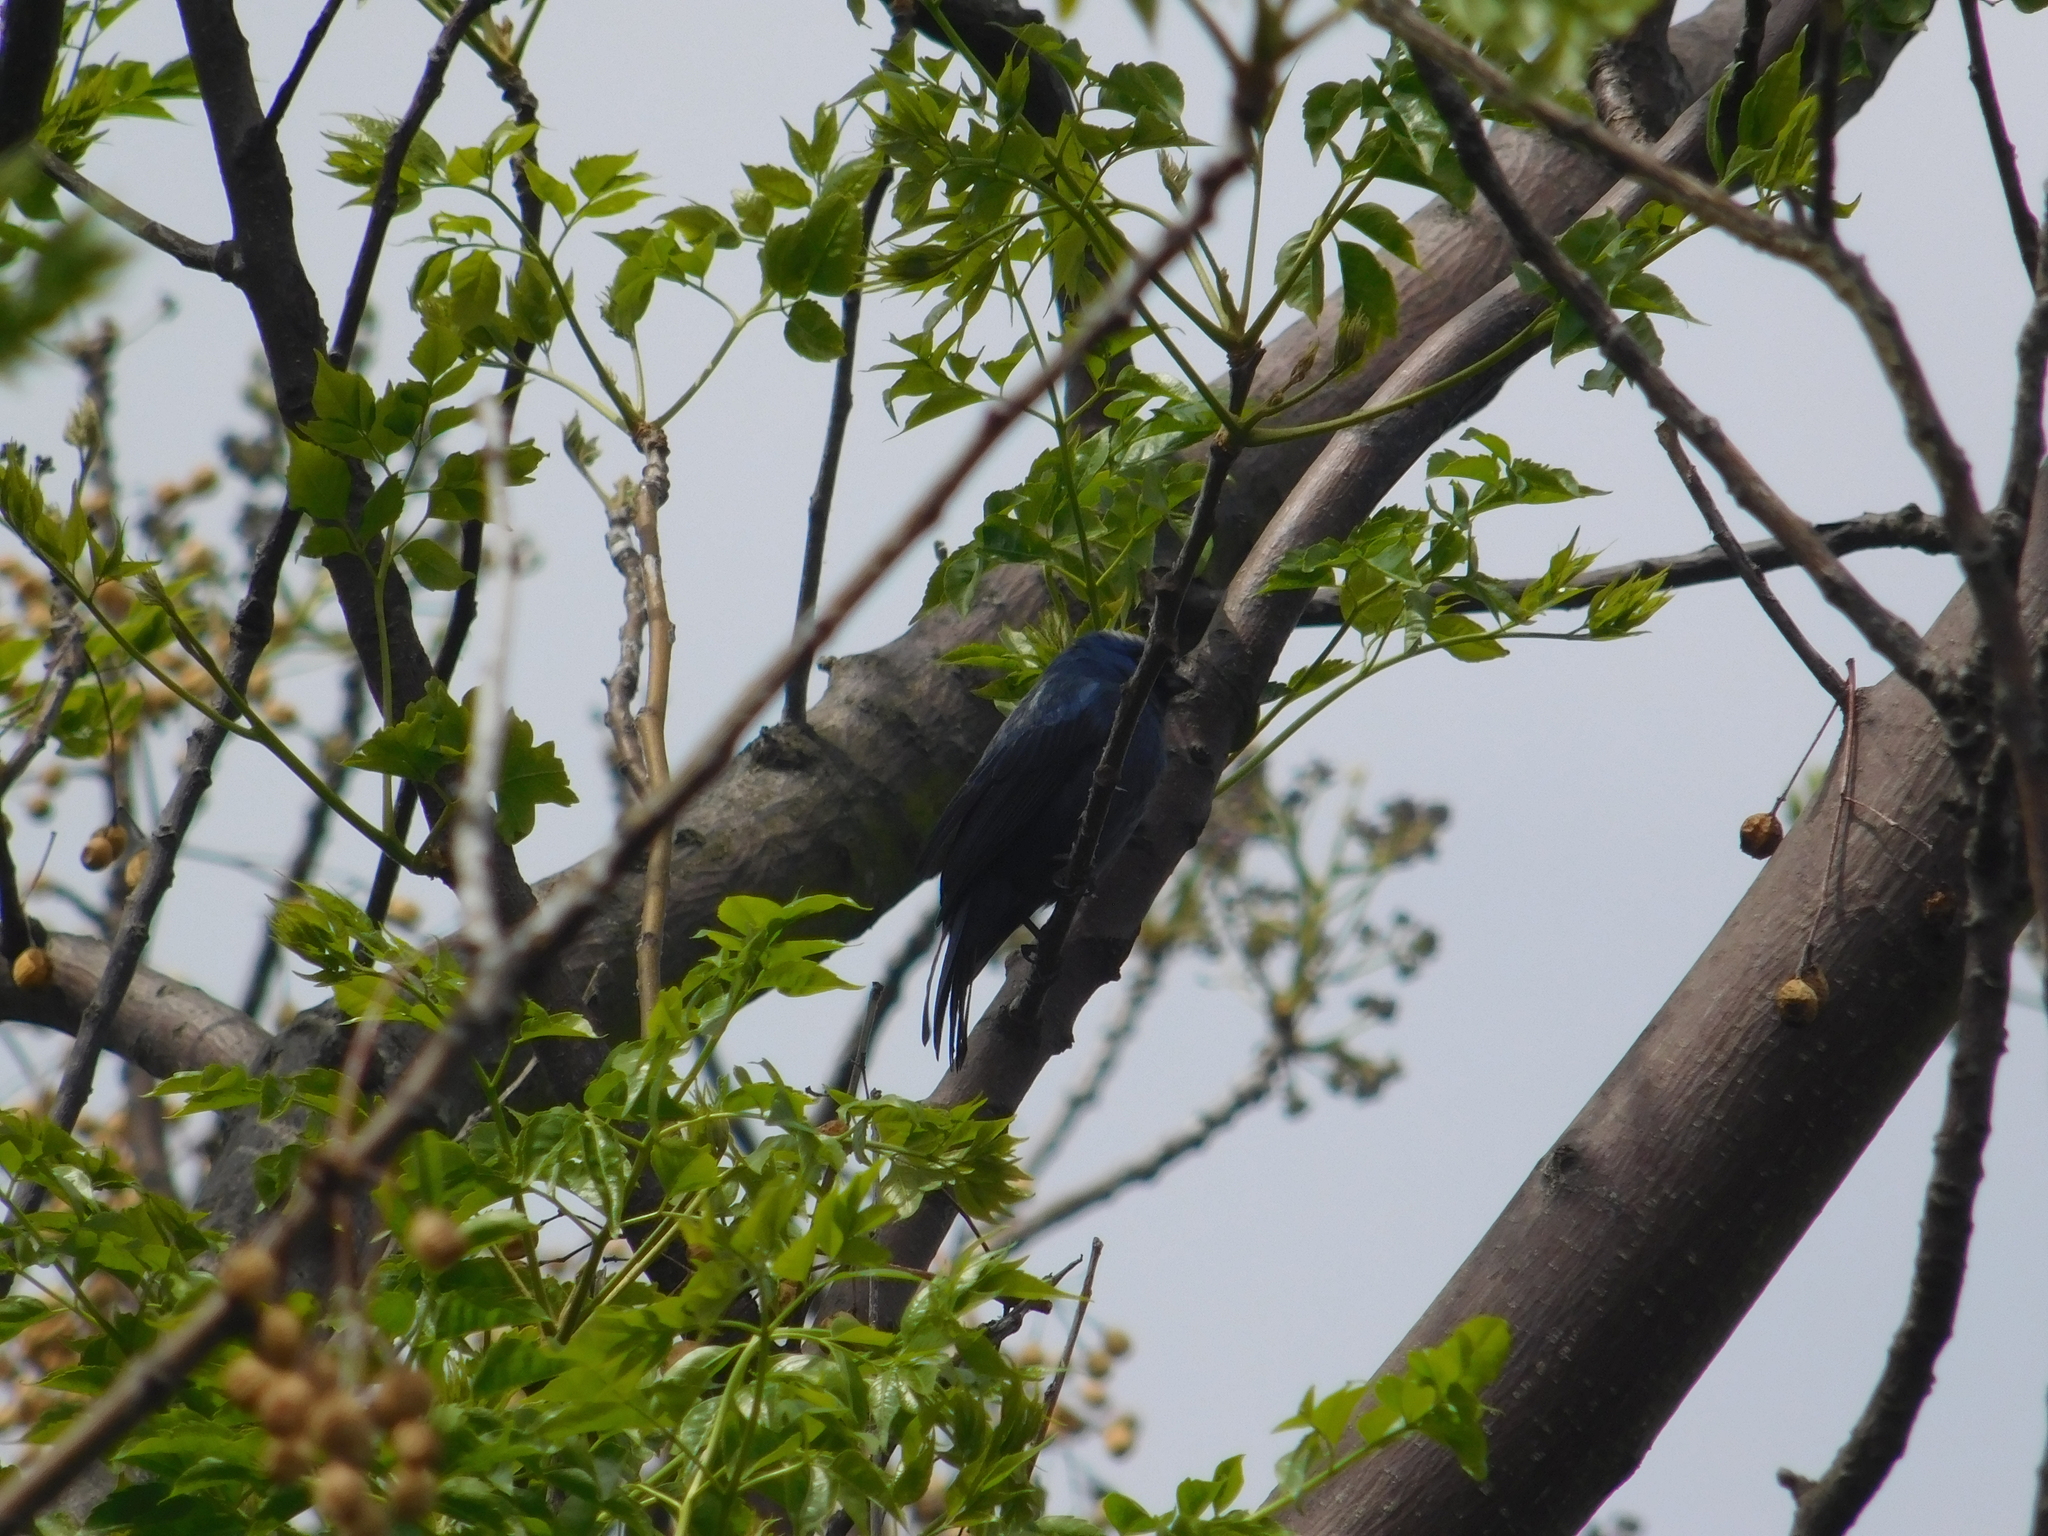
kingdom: Animalia
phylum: Chordata
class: Aves
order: Passeriformes
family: Thraupidae
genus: Stephanophorus
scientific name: Stephanophorus diadematus
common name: Diademed tanager
